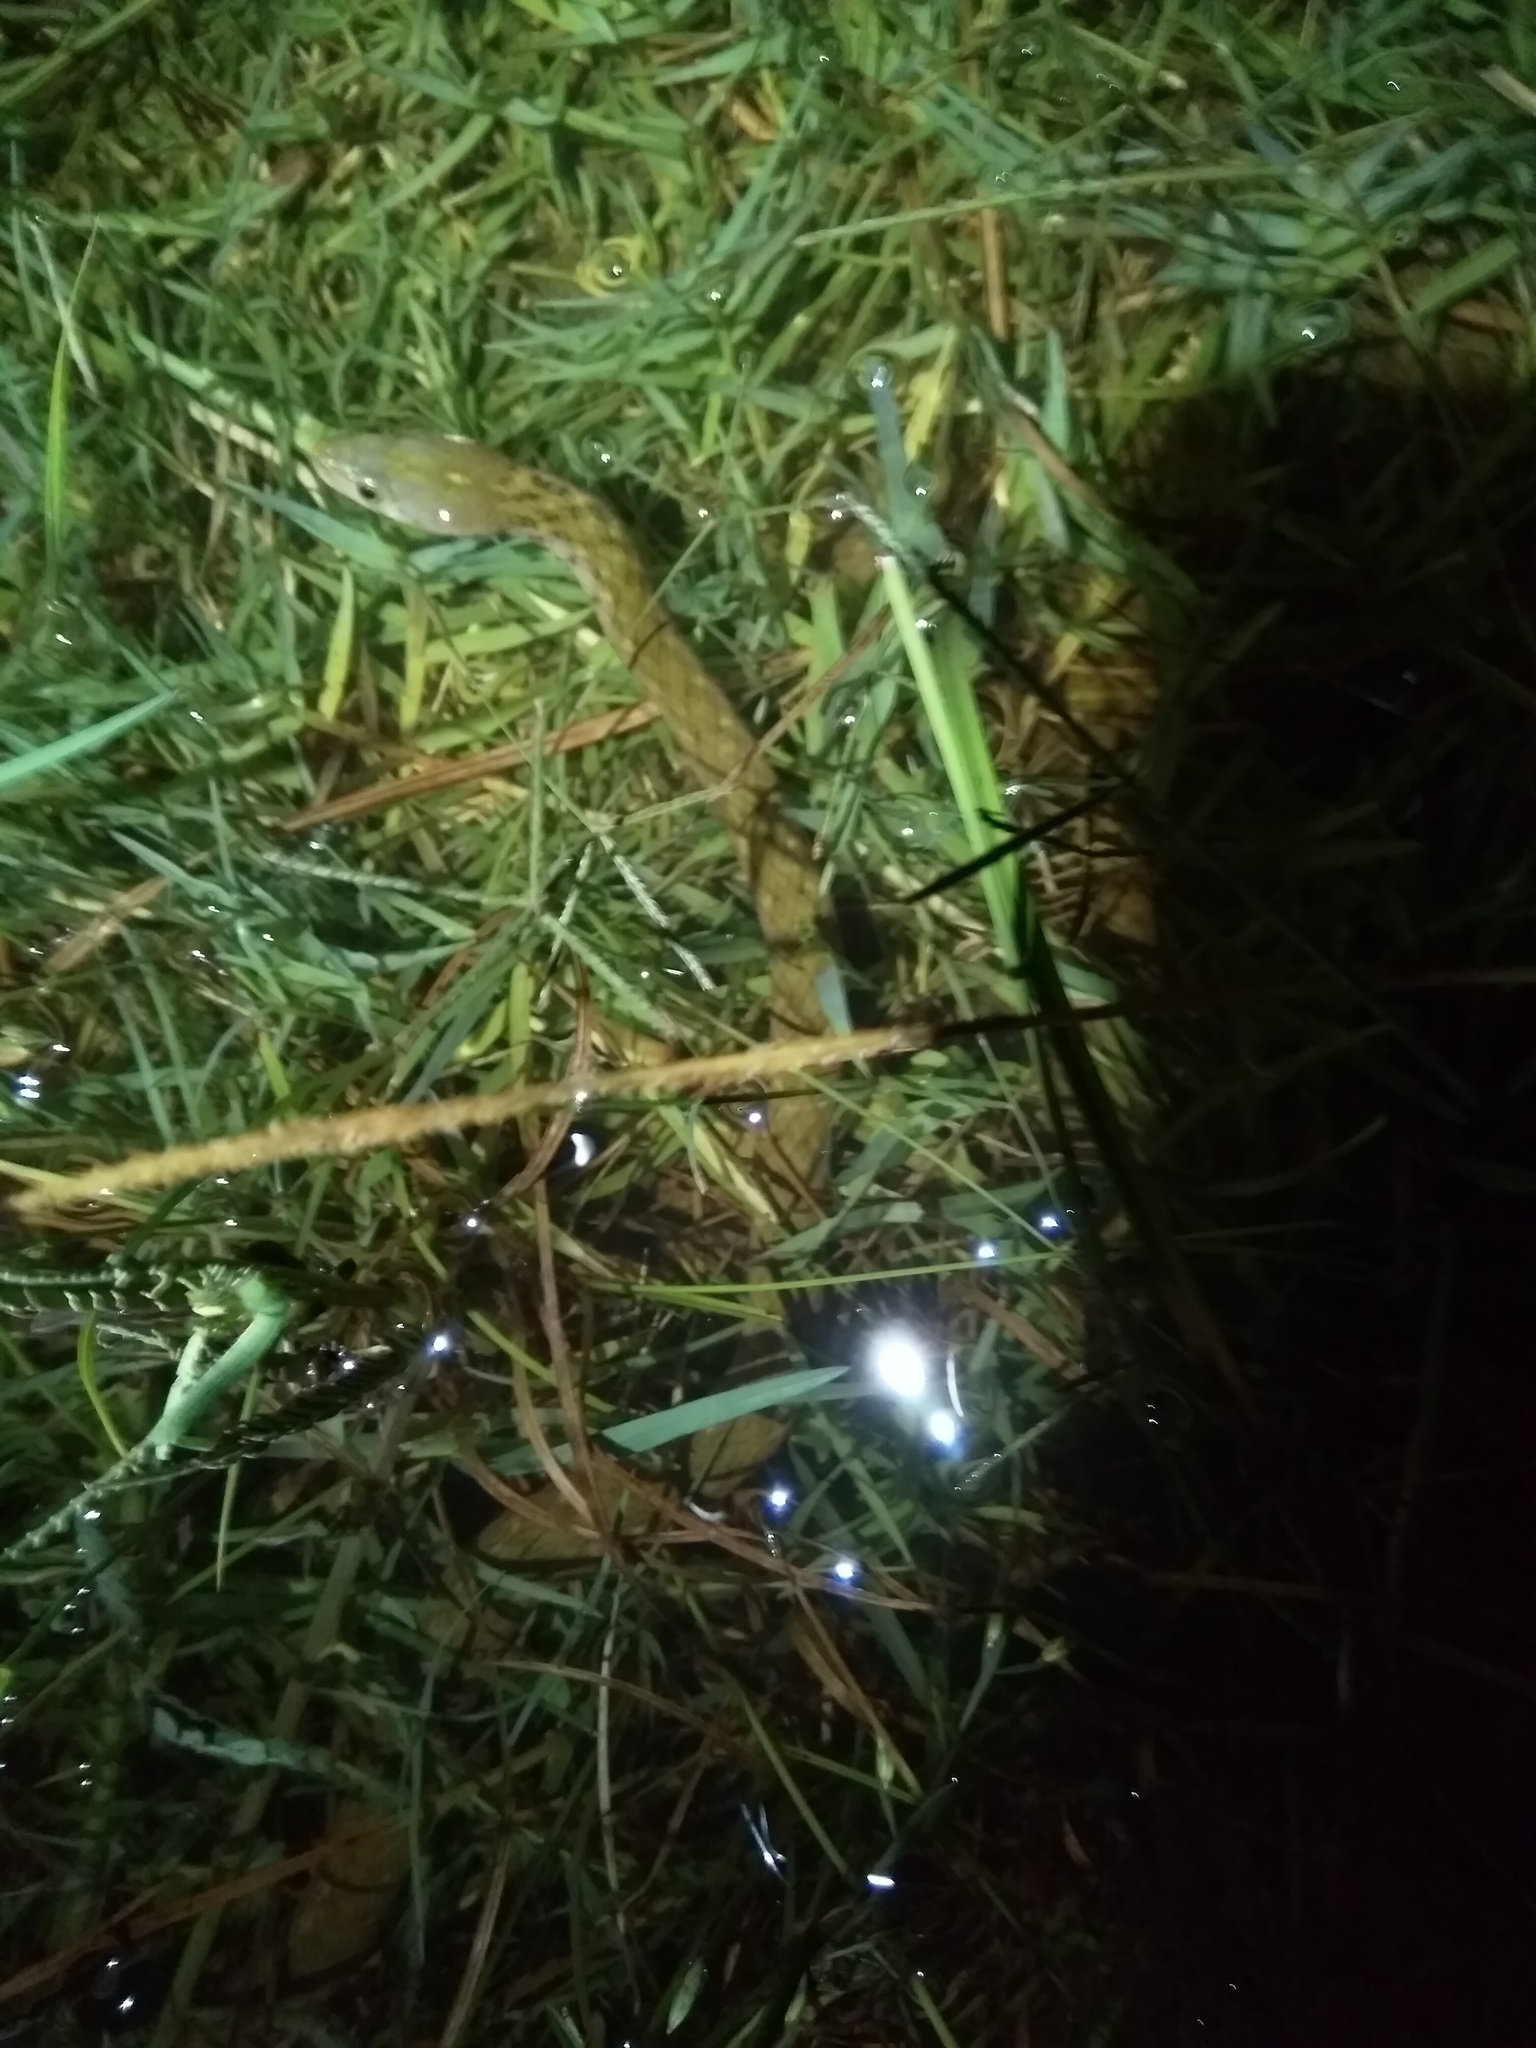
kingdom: Animalia
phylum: Chordata
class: Squamata
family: Colubridae
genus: Fowlea
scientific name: Fowlea piscator
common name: Asiatic water snake
